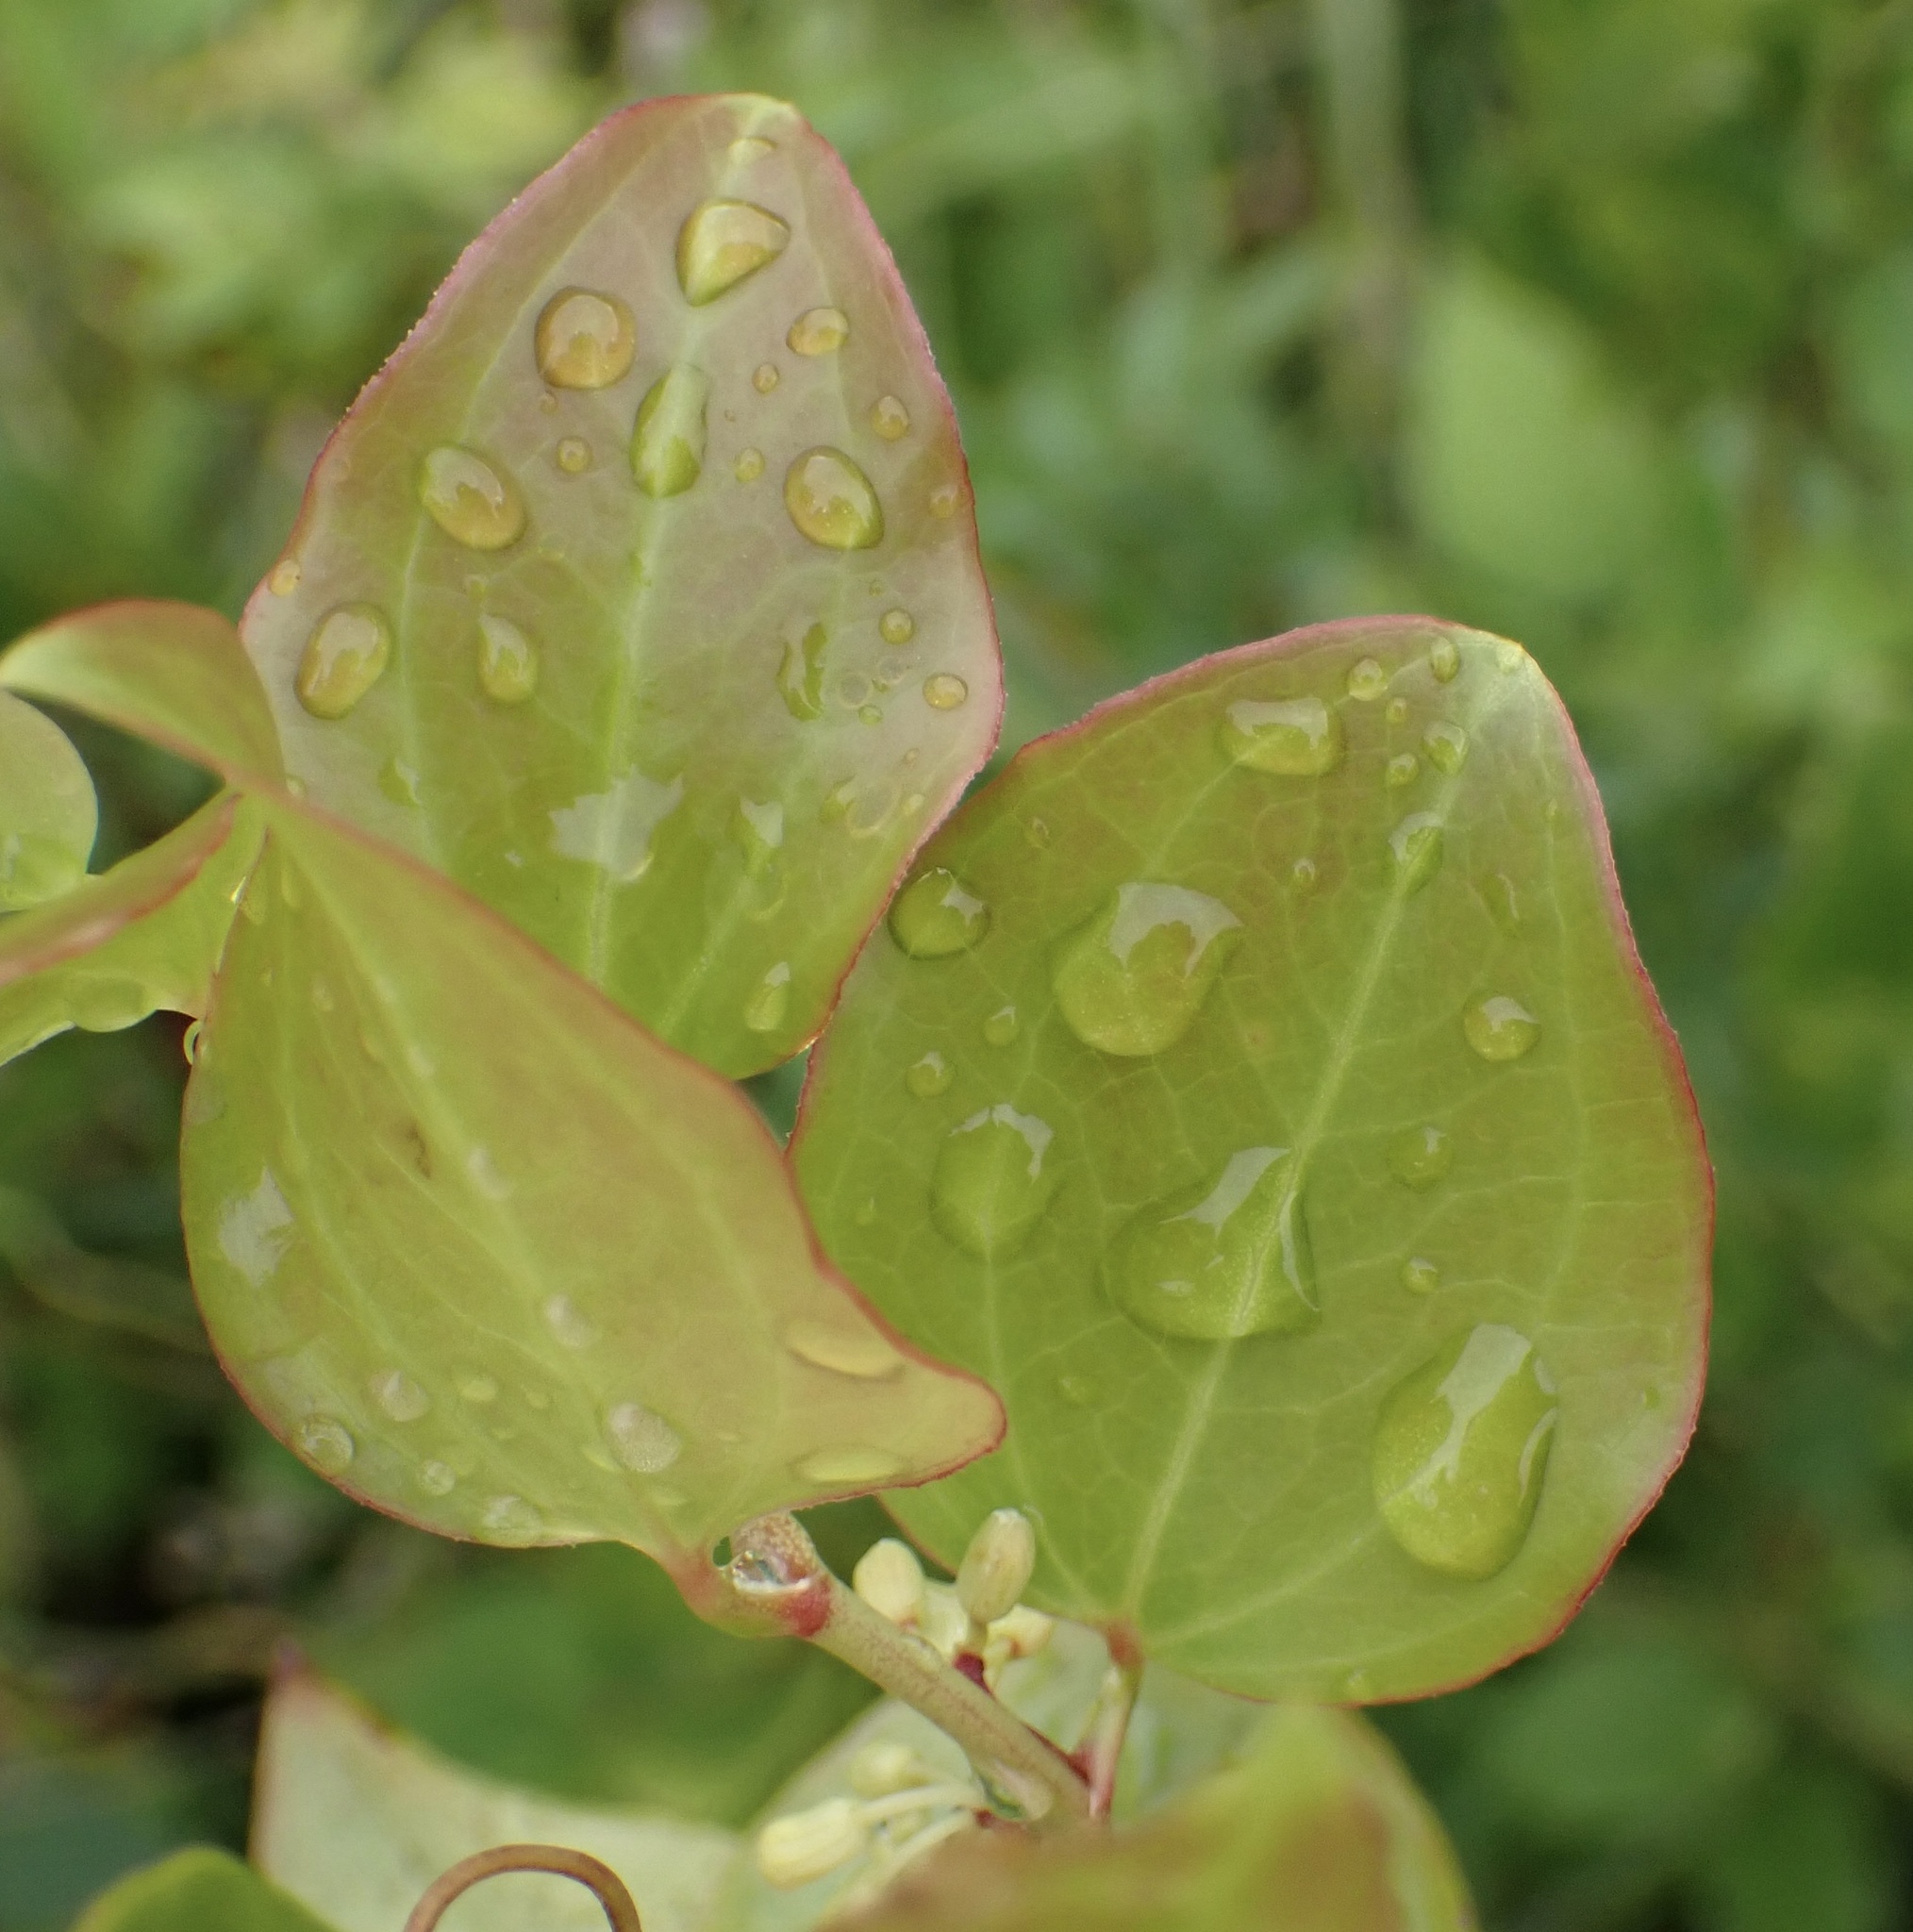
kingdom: Plantae
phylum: Tracheophyta
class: Liliopsida
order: Liliales
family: Smilacaceae
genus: Smilax
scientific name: Smilax rotundifolia
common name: Bullbriar
